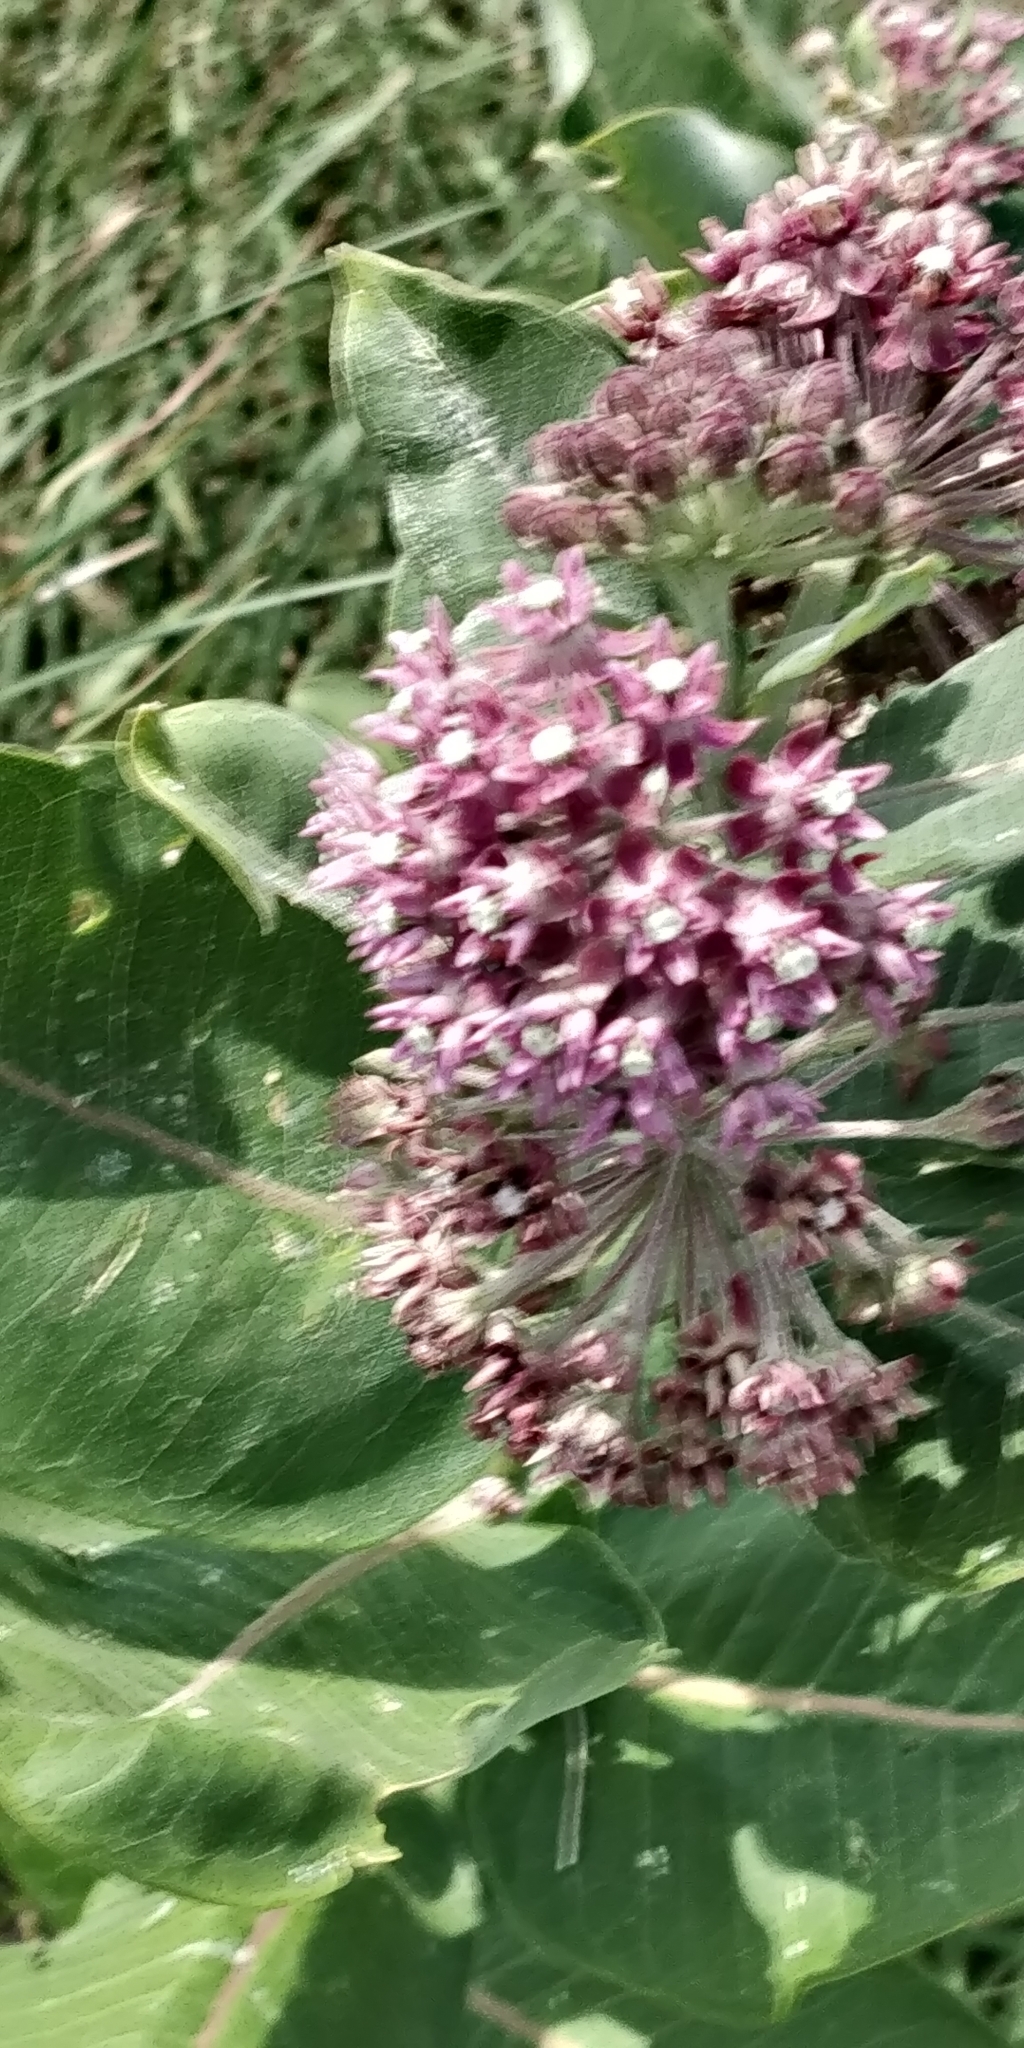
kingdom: Plantae
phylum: Tracheophyta
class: Magnoliopsida
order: Gentianales
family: Apocynaceae
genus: Asclepias
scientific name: Asclepias syriaca
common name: Common milkweed
